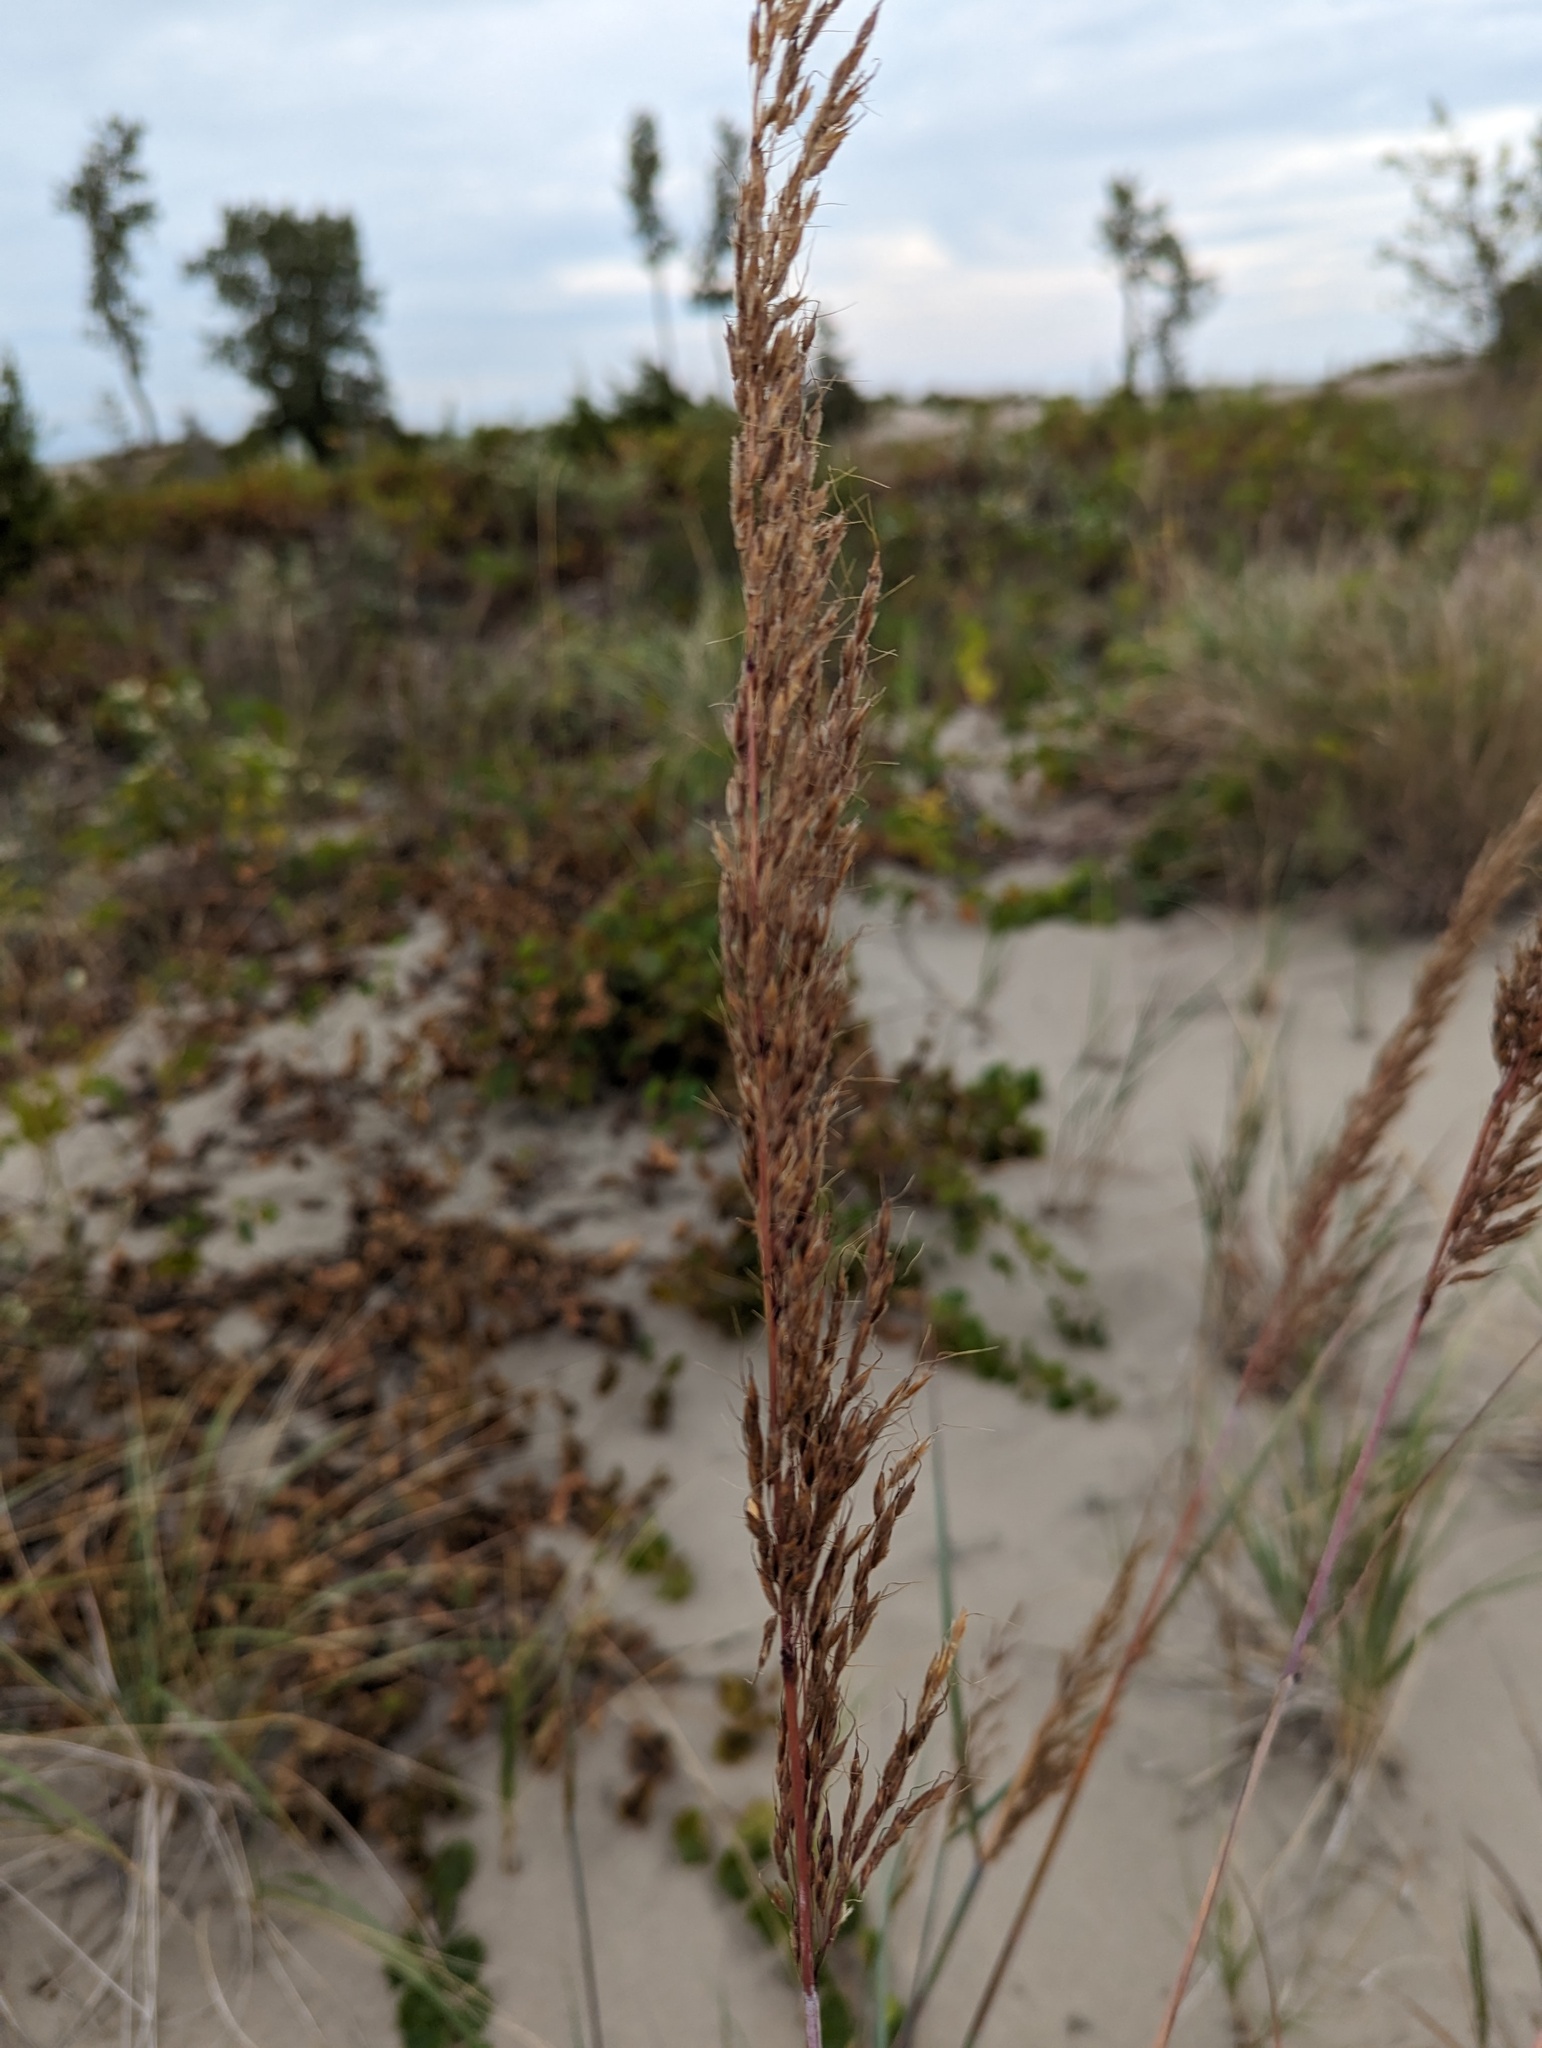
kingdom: Plantae
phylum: Tracheophyta
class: Liliopsida
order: Poales
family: Poaceae
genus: Sorghastrum
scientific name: Sorghastrum nutans
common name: Indian grass
